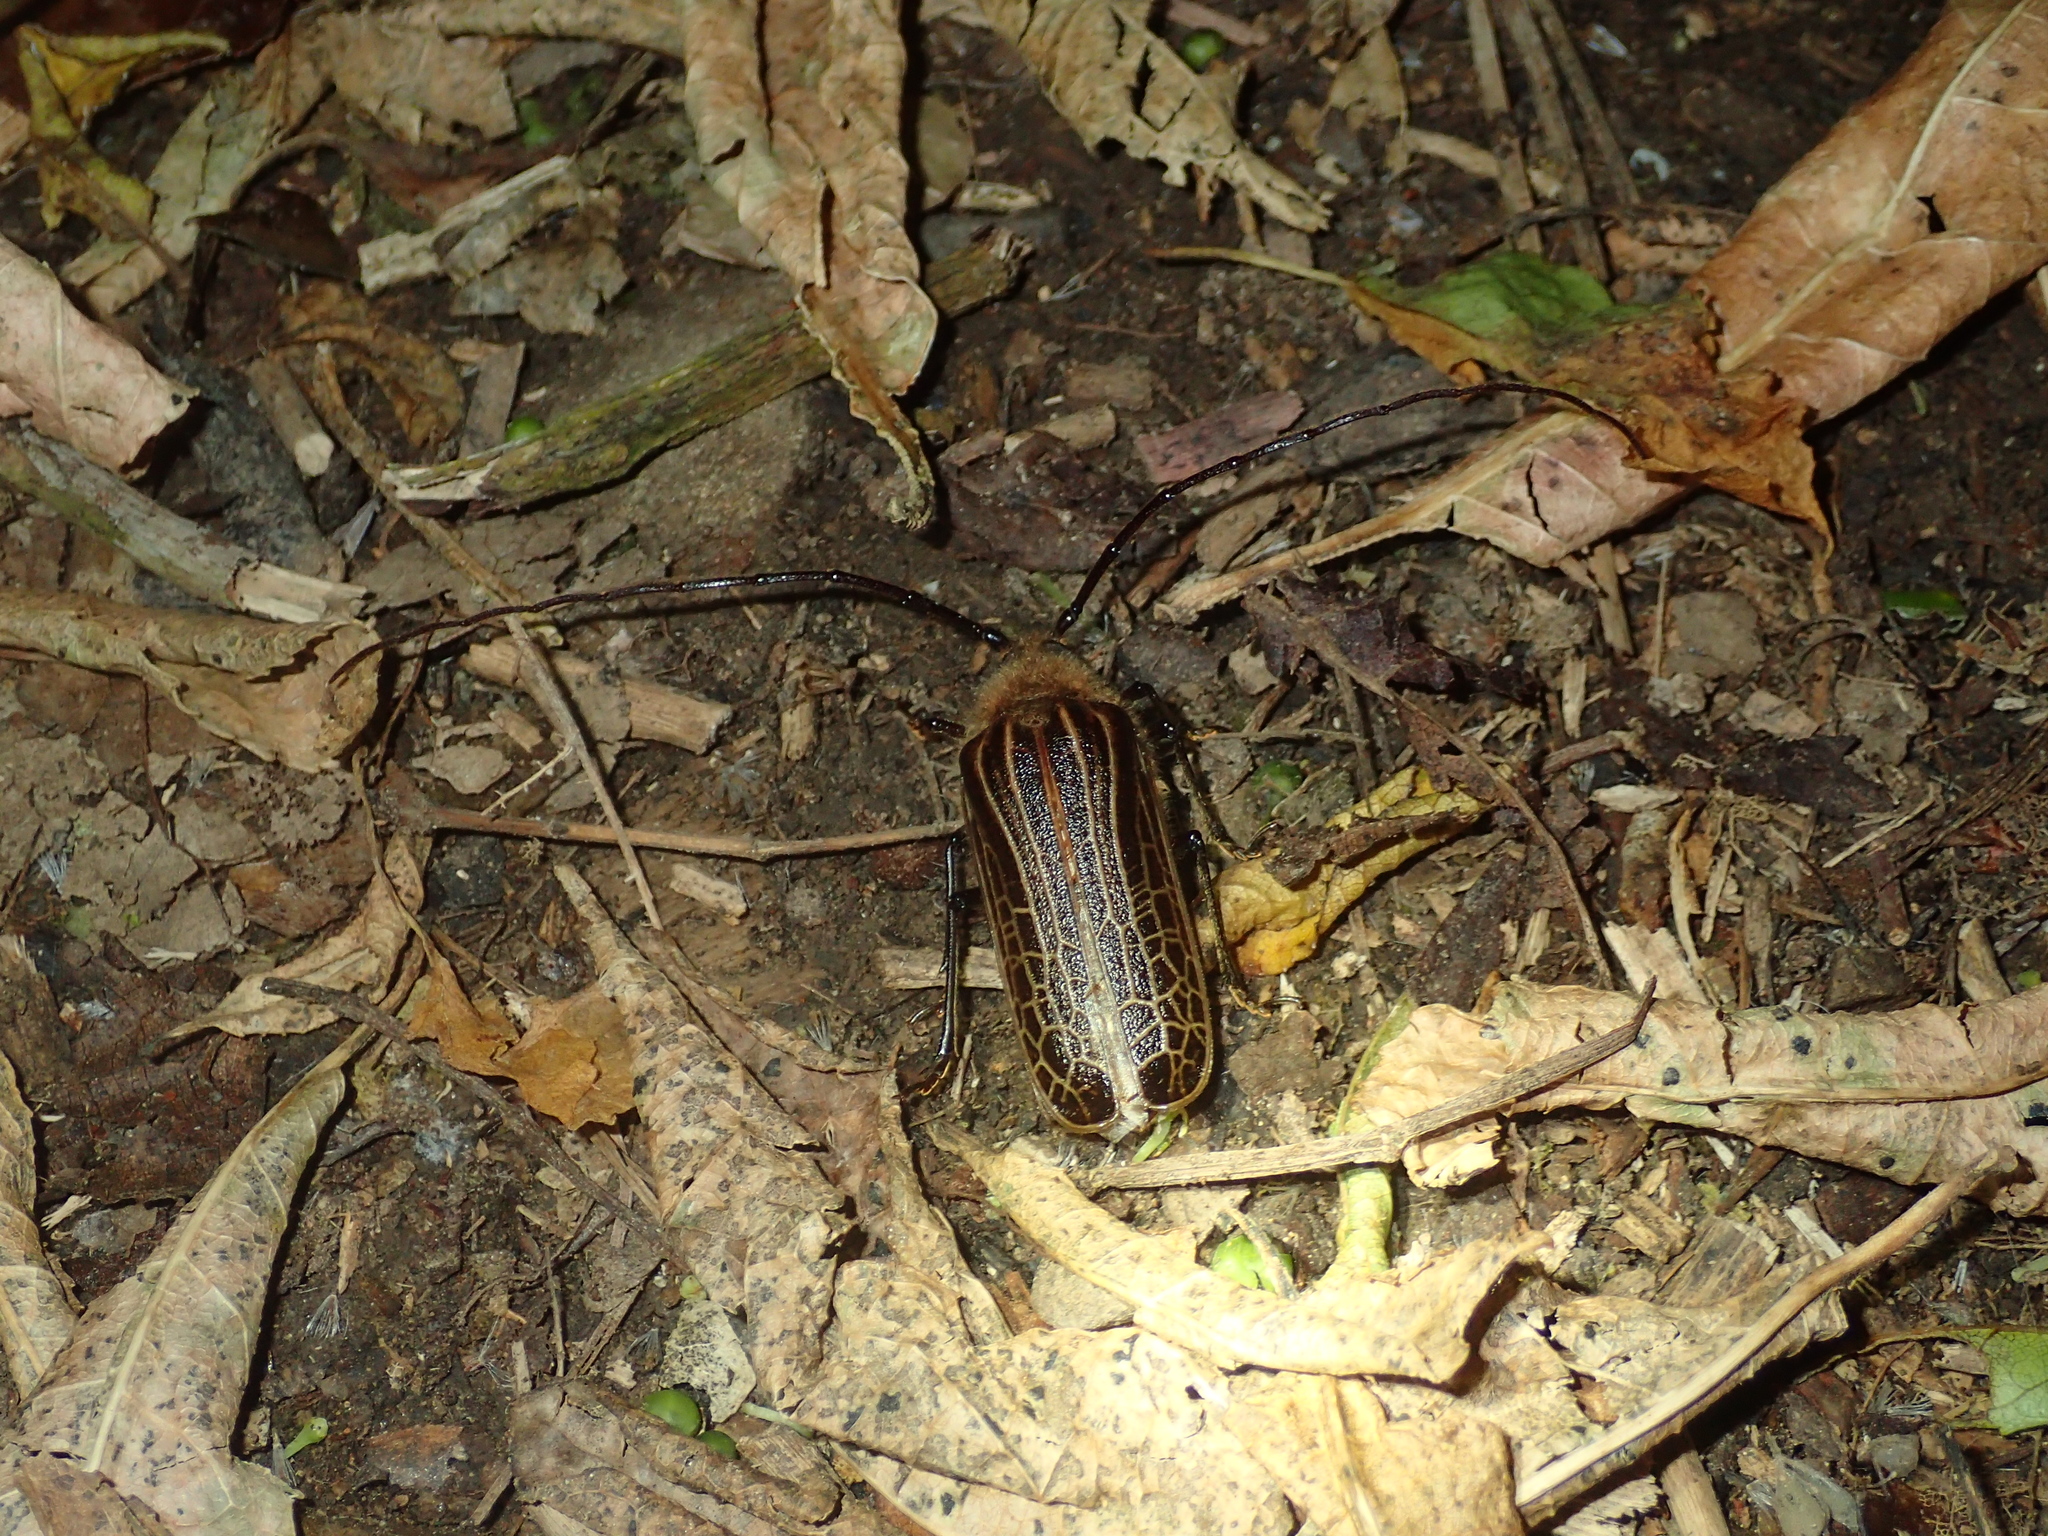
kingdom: Animalia
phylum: Arthropoda
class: Insecta
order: Coleoptera
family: Cerambycidae
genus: Prionoplus
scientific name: Prionoplus reticularis
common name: Huhu beetle
